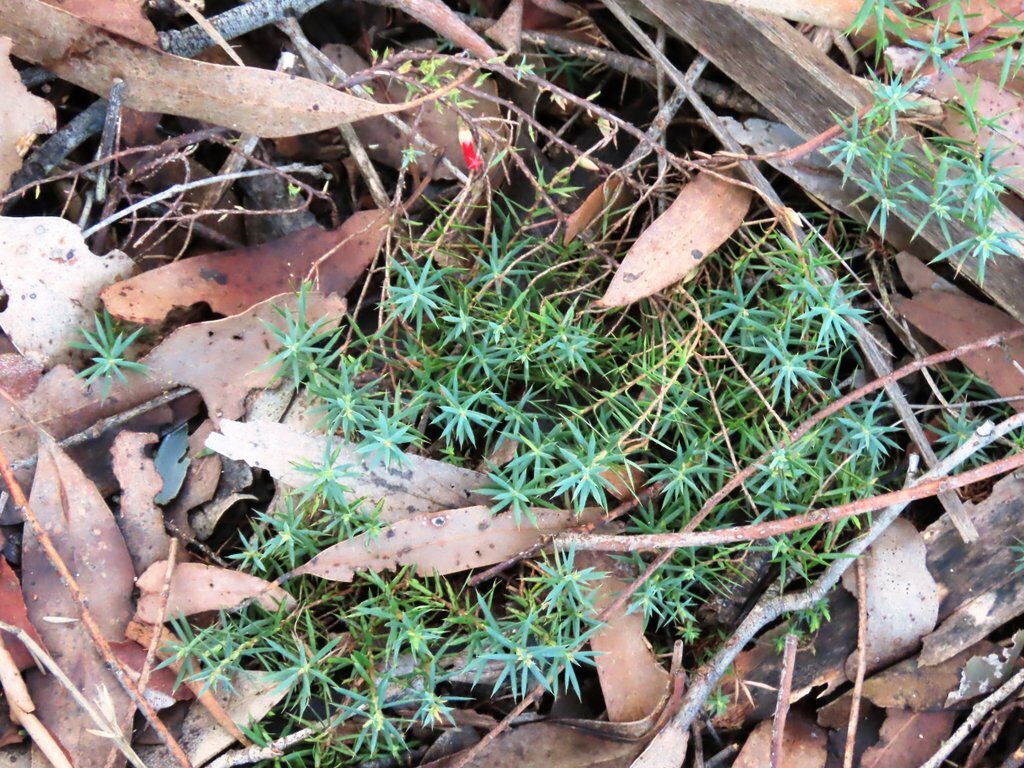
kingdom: Plantae
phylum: Tracheophyta
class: Magnoliopsida
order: Ericales
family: Ericaceae
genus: Styphelia
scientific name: Styphelia humifusa
